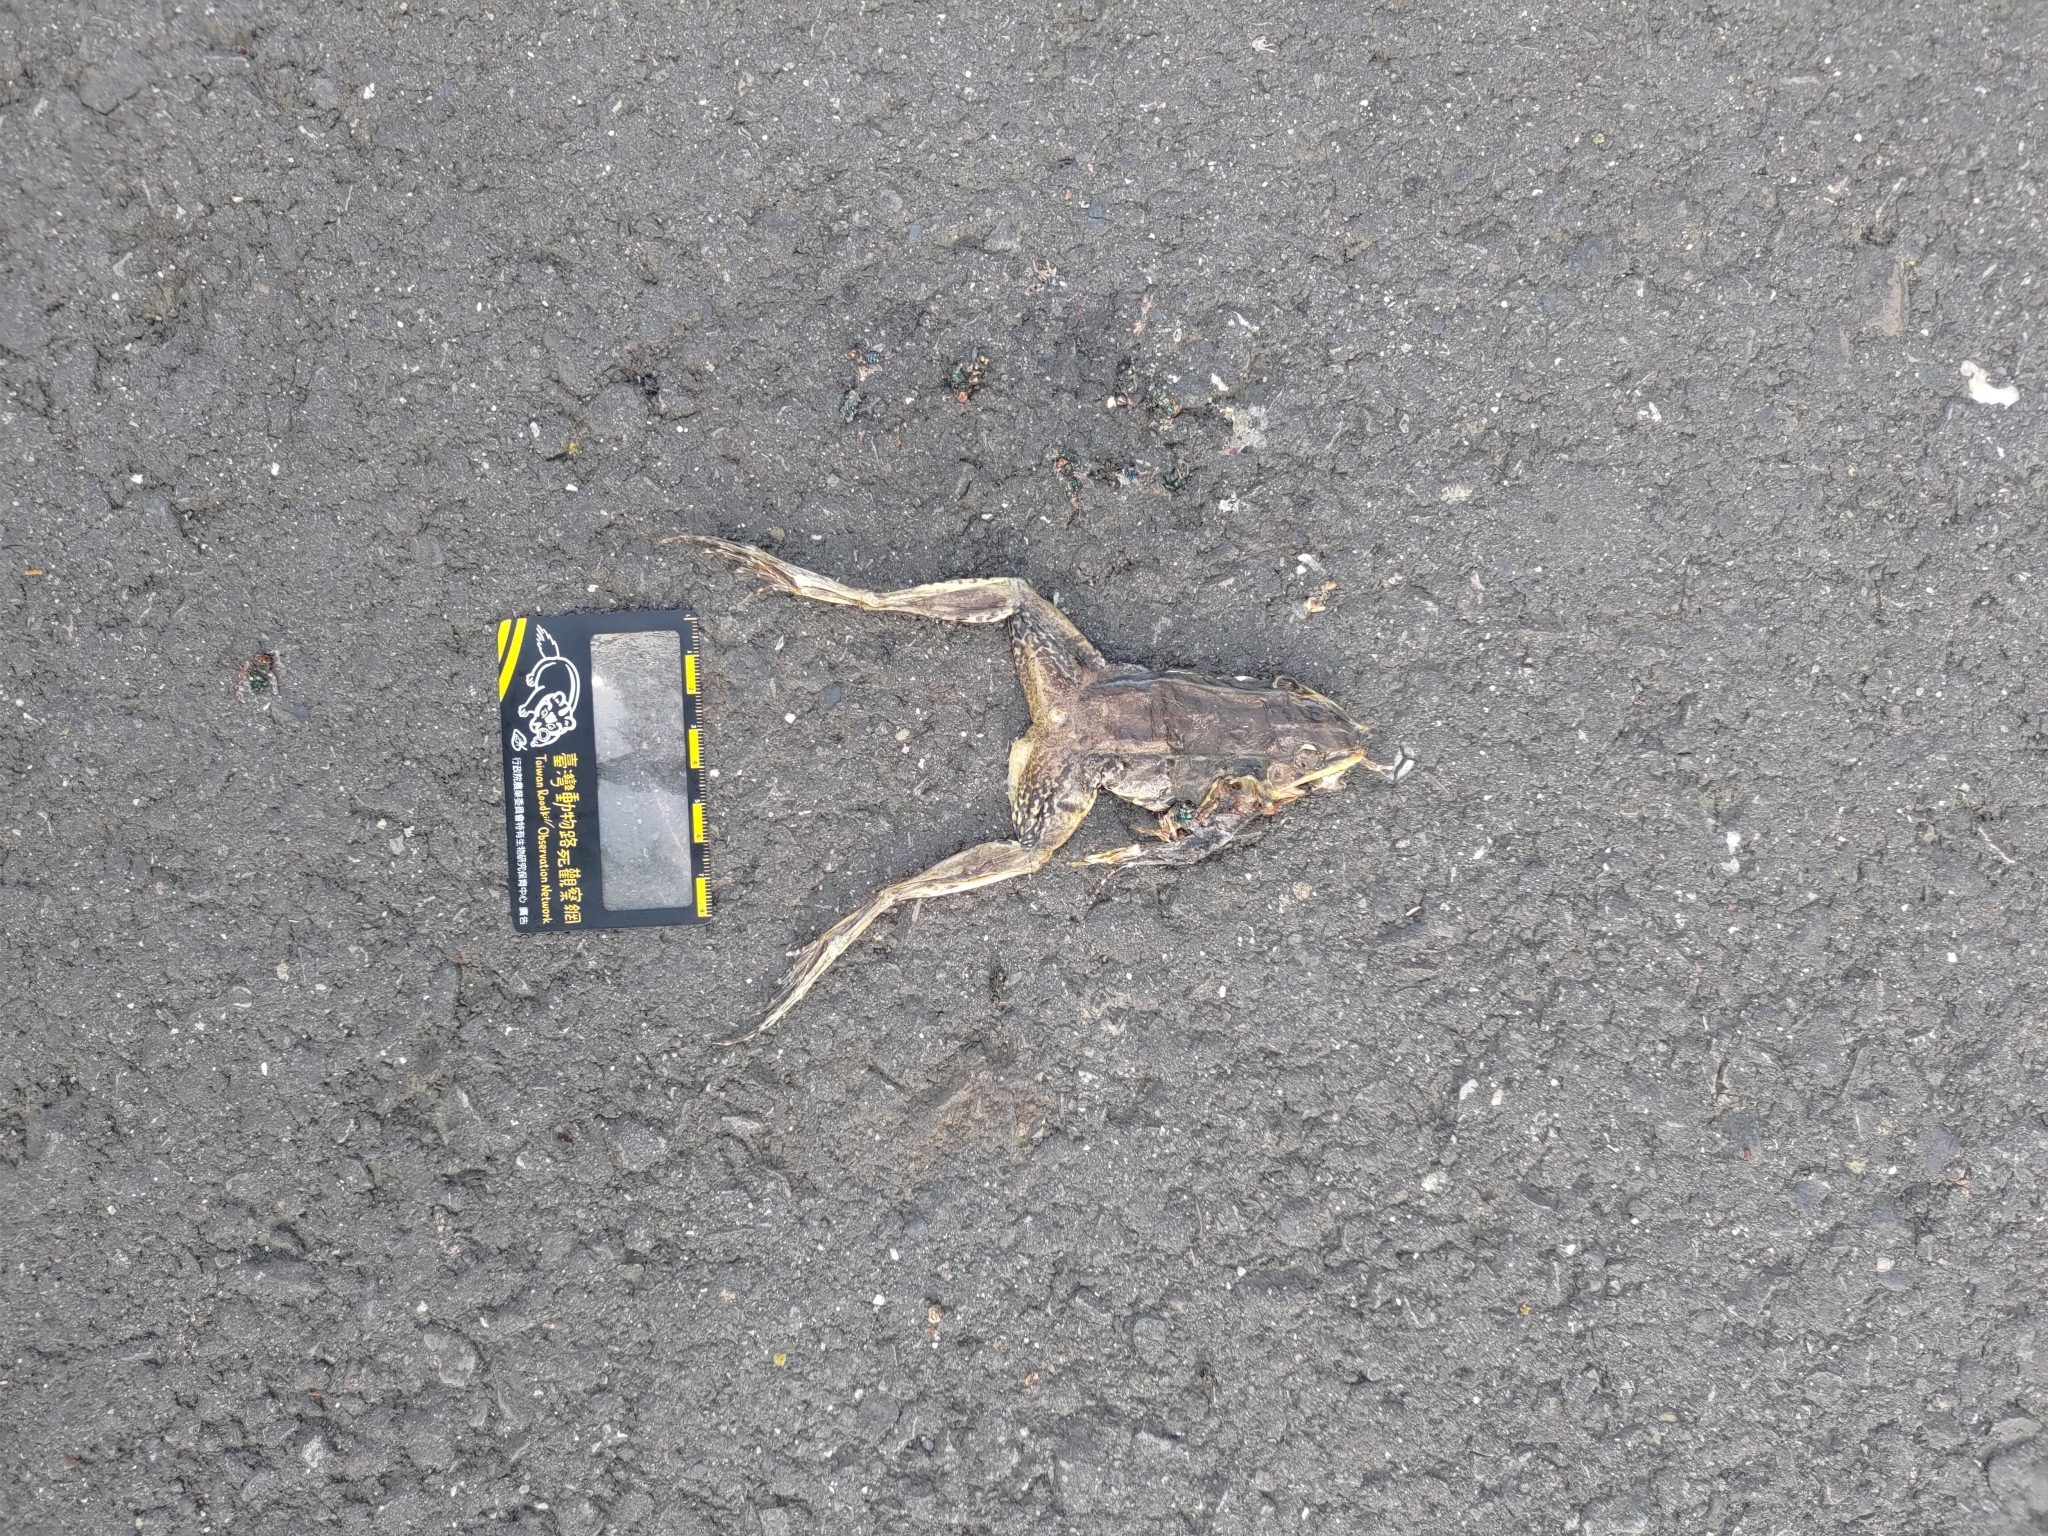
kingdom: Animalia
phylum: Chordata
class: Amphibia
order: Anura
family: Ranidae
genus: Sylvirana
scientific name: Sylvirana guentheri
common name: Guenther's amoy frog
